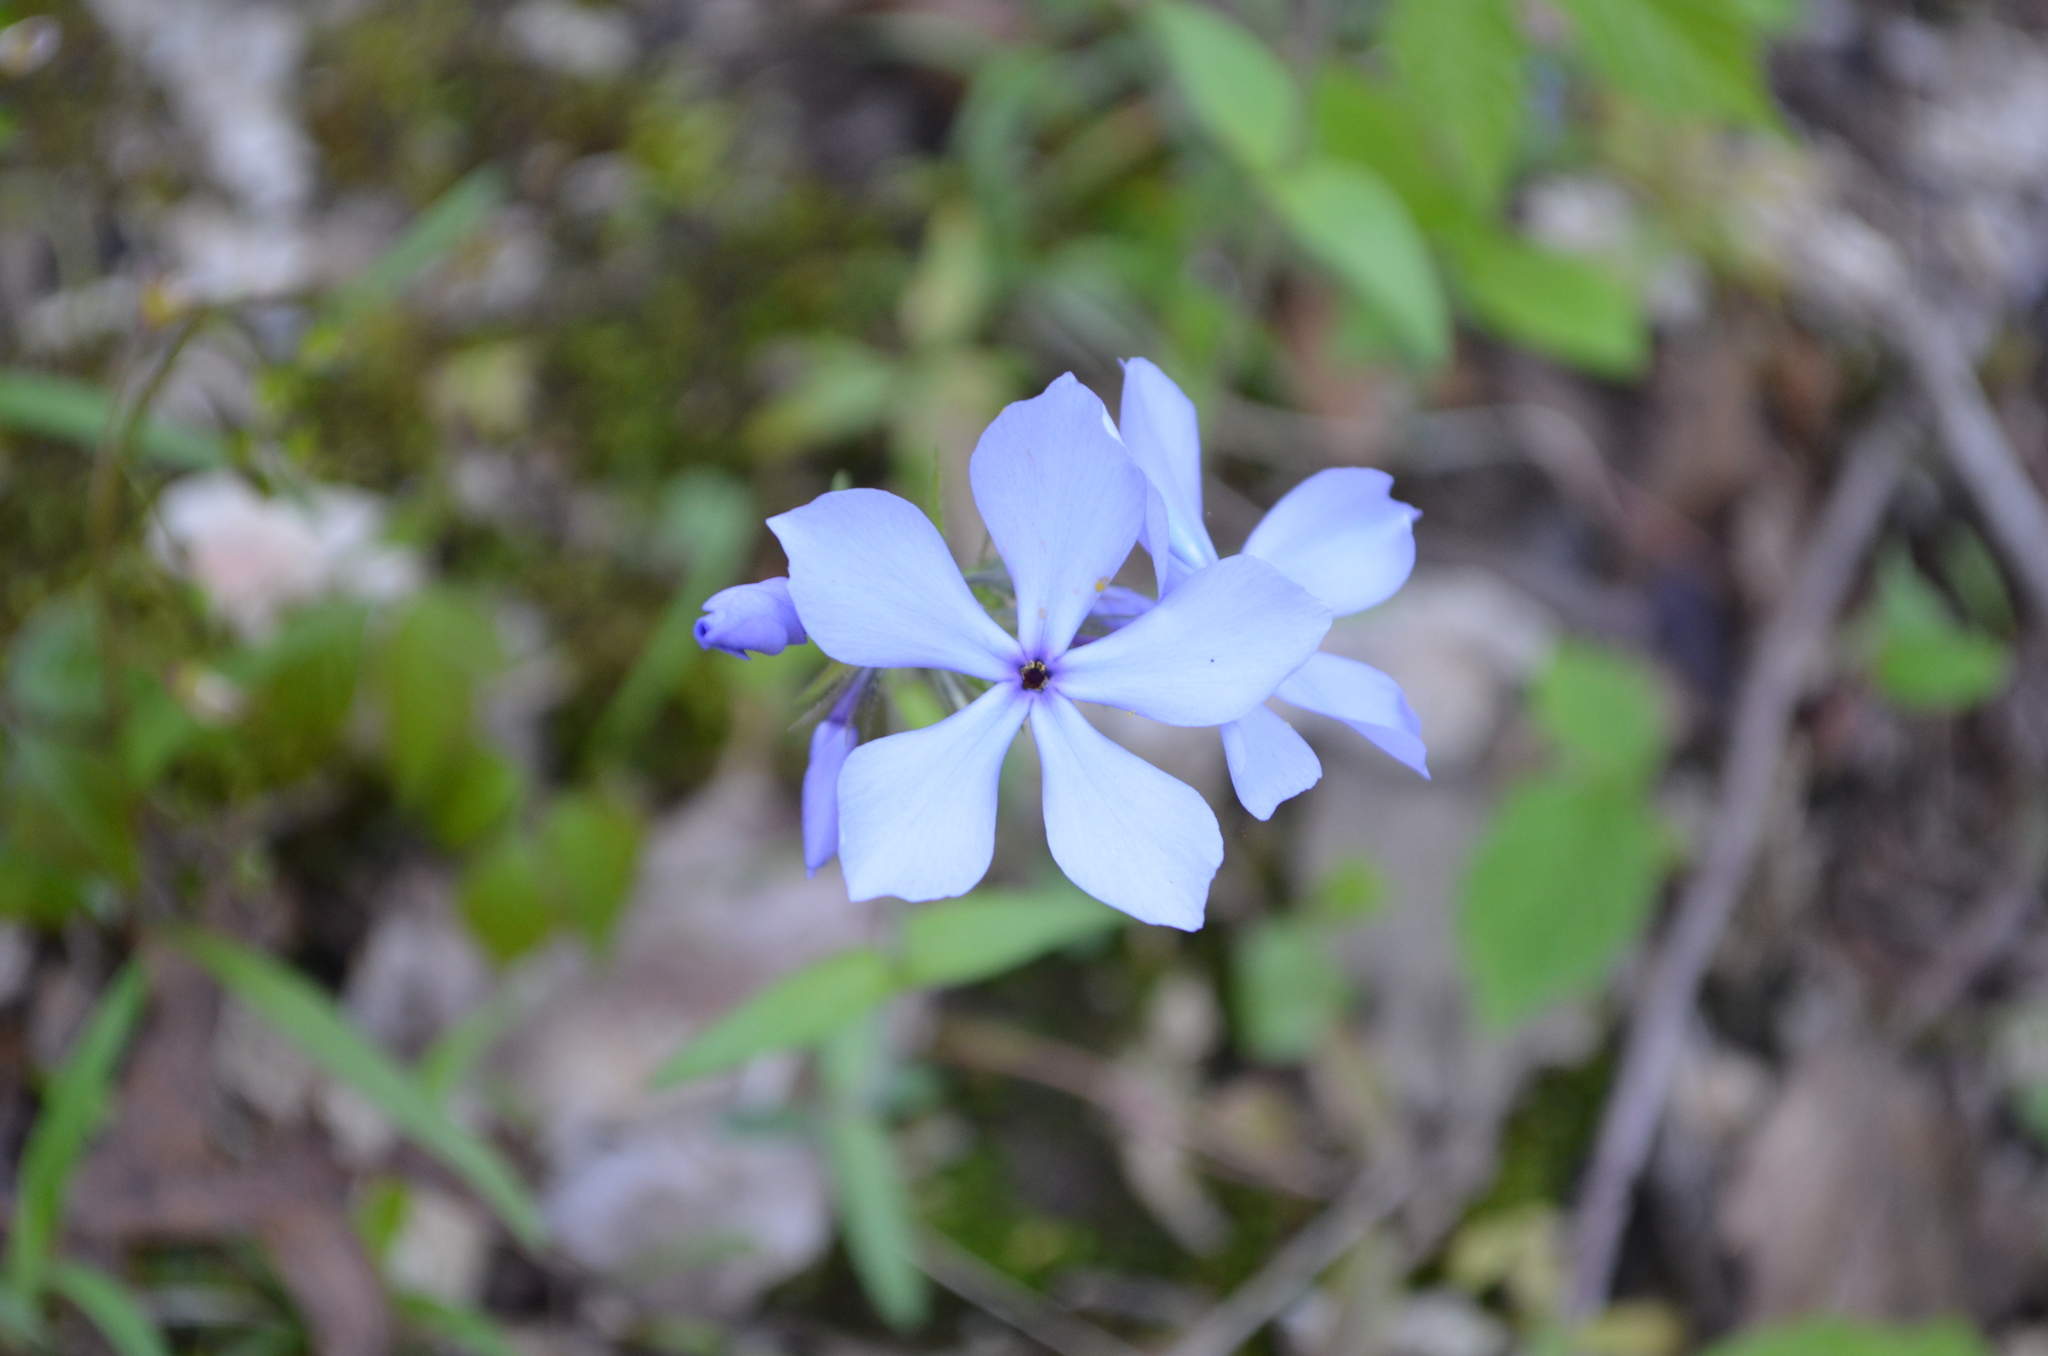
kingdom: Plantae
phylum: Tracheophyta
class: Magnoliopsida
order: Ericales
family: Polemoniaceae
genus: Phlox
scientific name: Phlox divaricata
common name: Blue phlox
